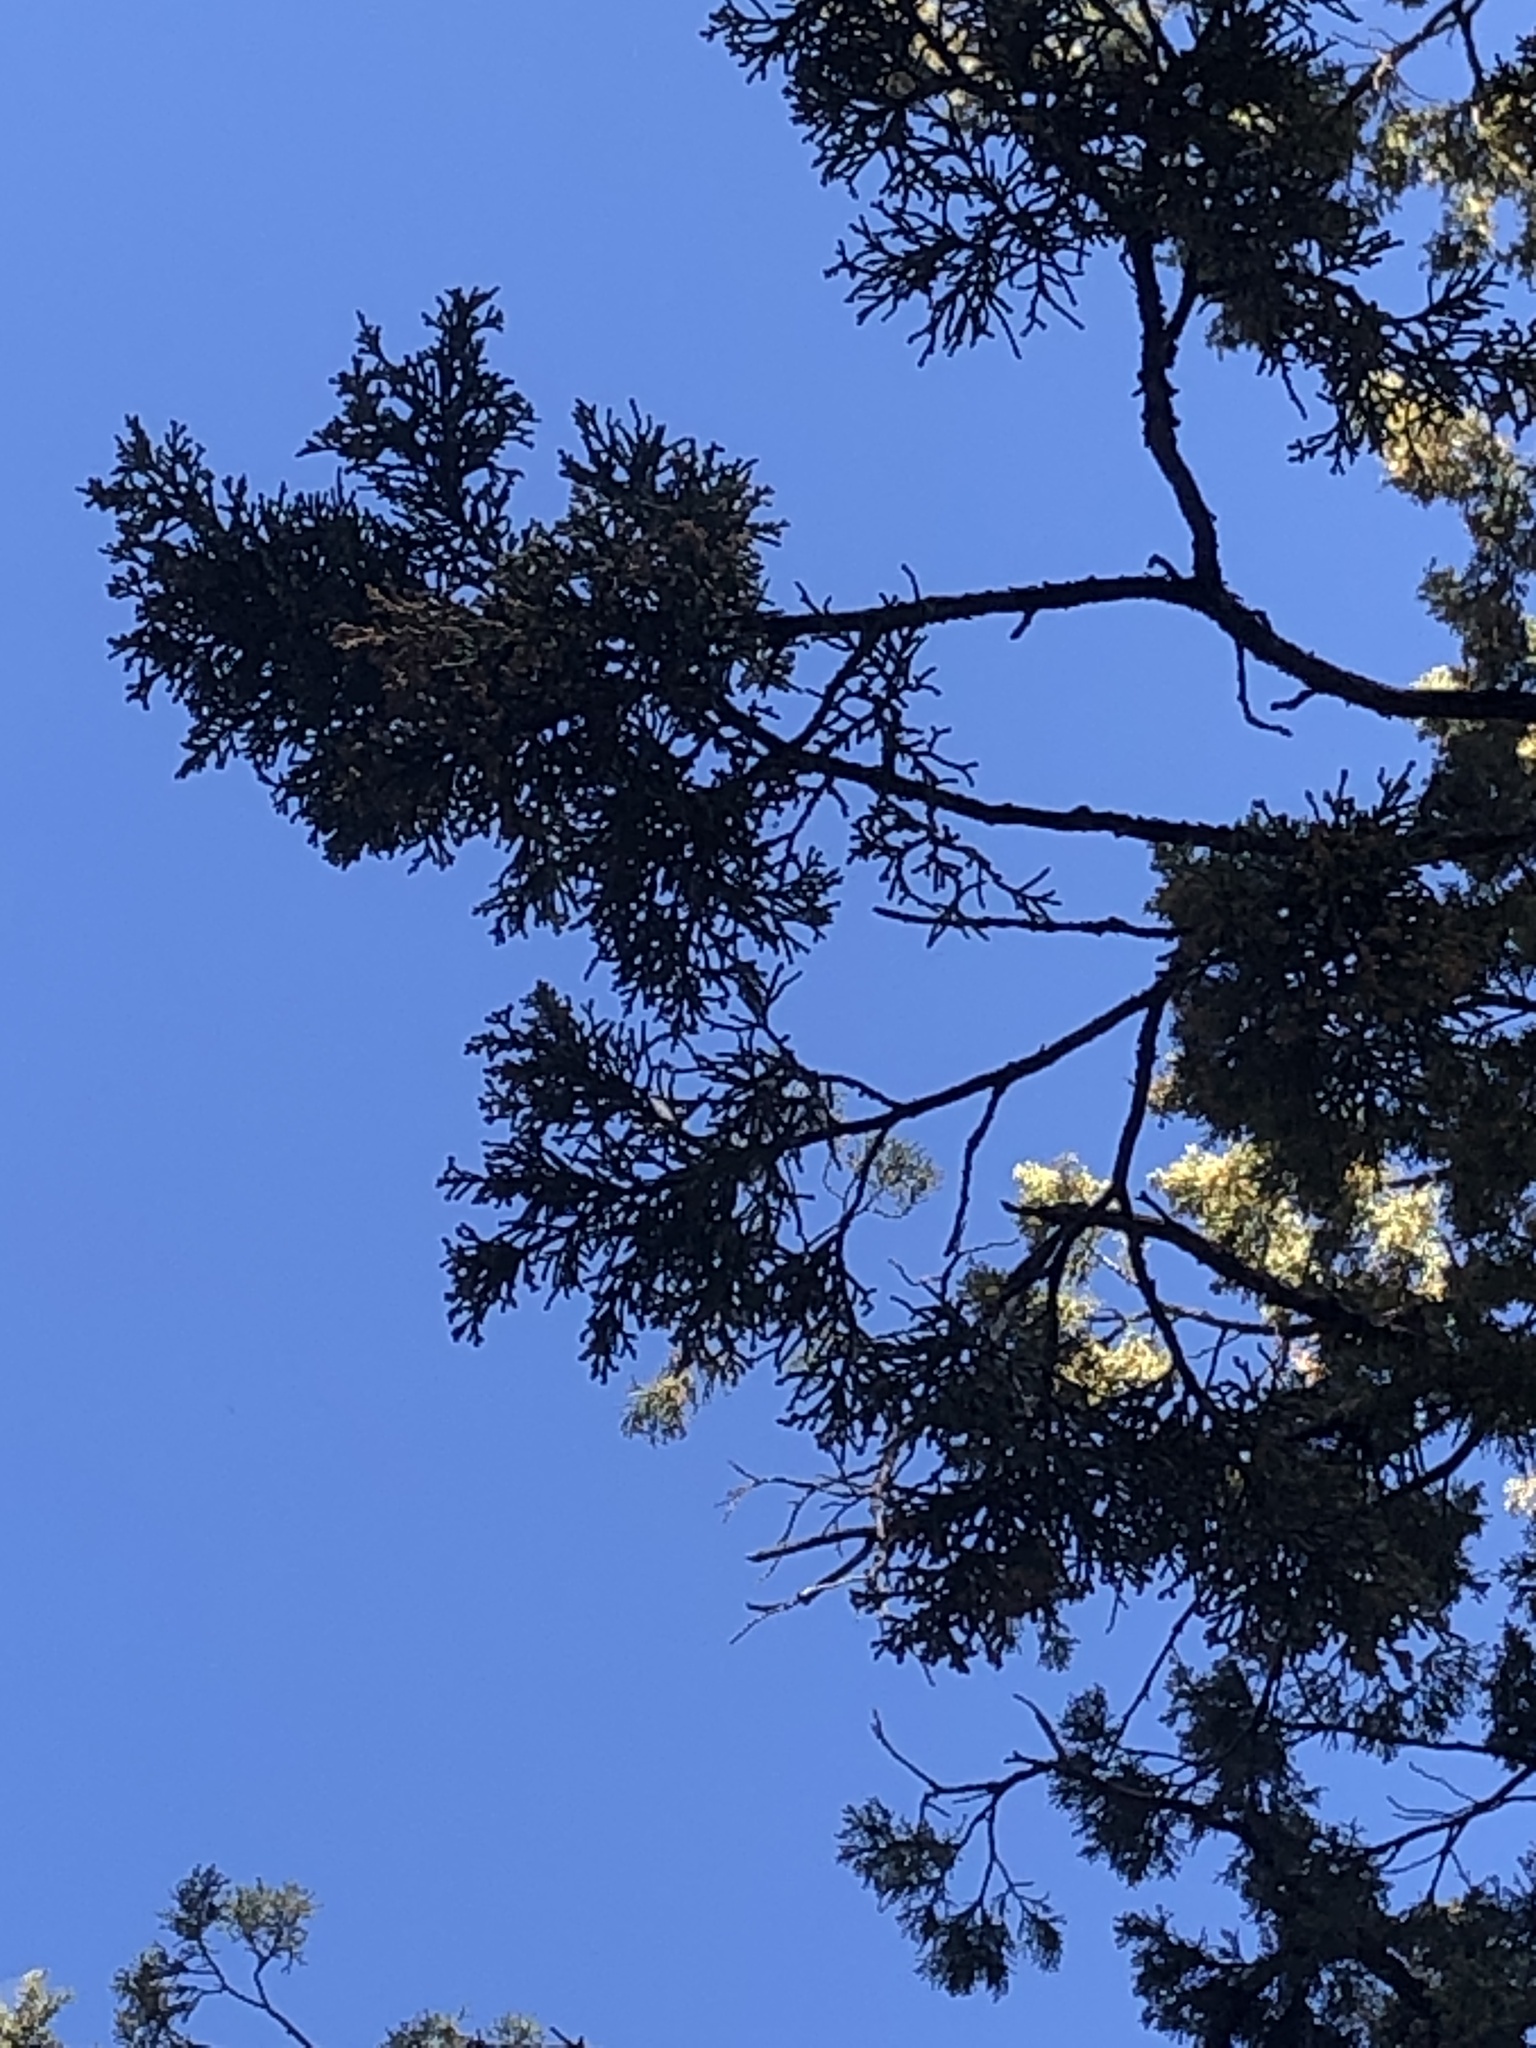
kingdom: Plantae
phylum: Tracheophyta
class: Pinopsida
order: Pinales
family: Cupressaceae
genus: Juniperus
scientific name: Juniperus occidentalis
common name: Western juniper
